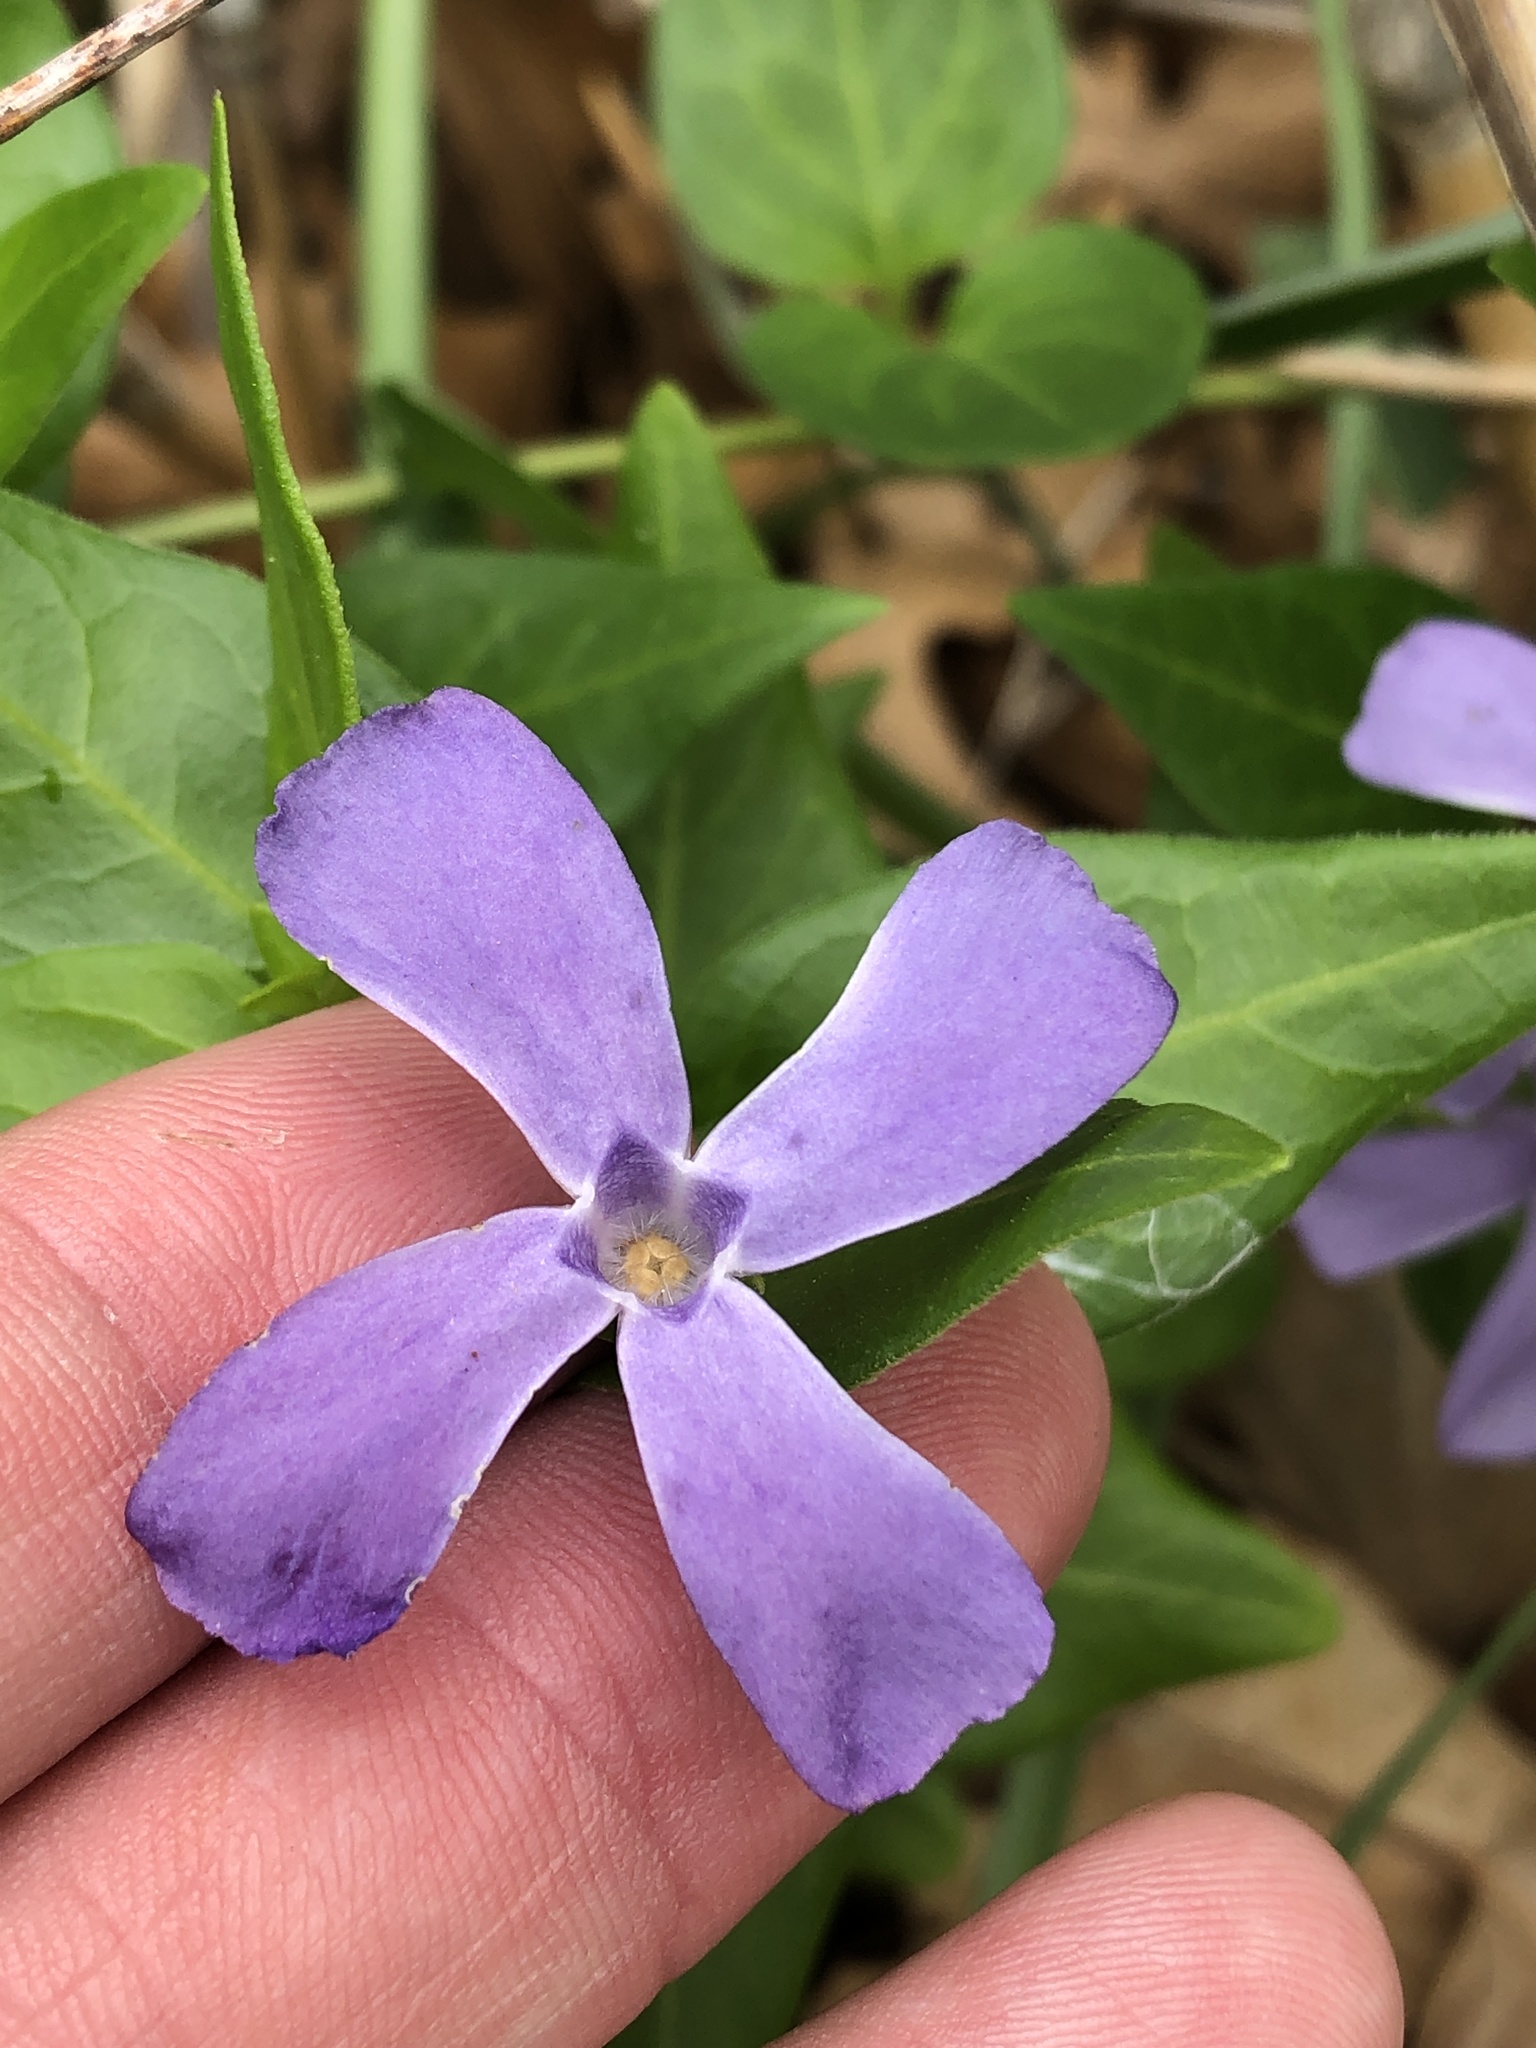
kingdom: Plantae
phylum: Tracheophyta
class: Magnoliopsida
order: Gentianales
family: Apocynaceae
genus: Vinca
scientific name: Vinca major
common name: Greater periwinkle
